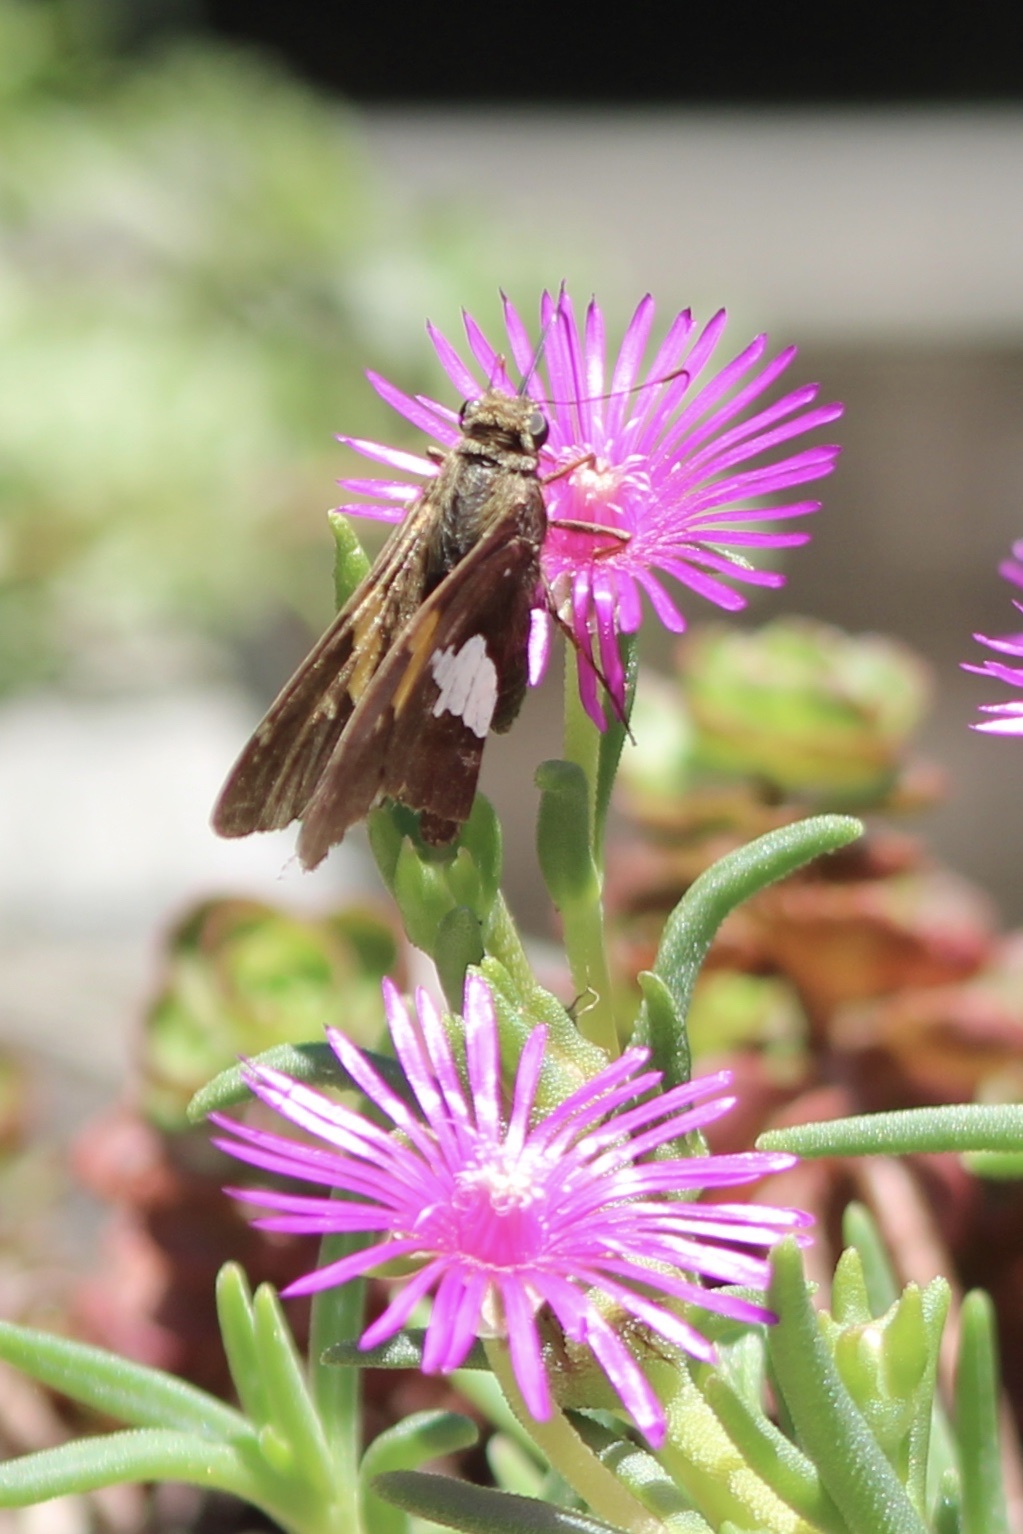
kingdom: Animalia
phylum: Arthropoda
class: Insecta
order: Lepidoptera
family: Hesperiidae
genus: Epargyreus
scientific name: Epargyreus clarus
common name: Silver-spotted skipper
